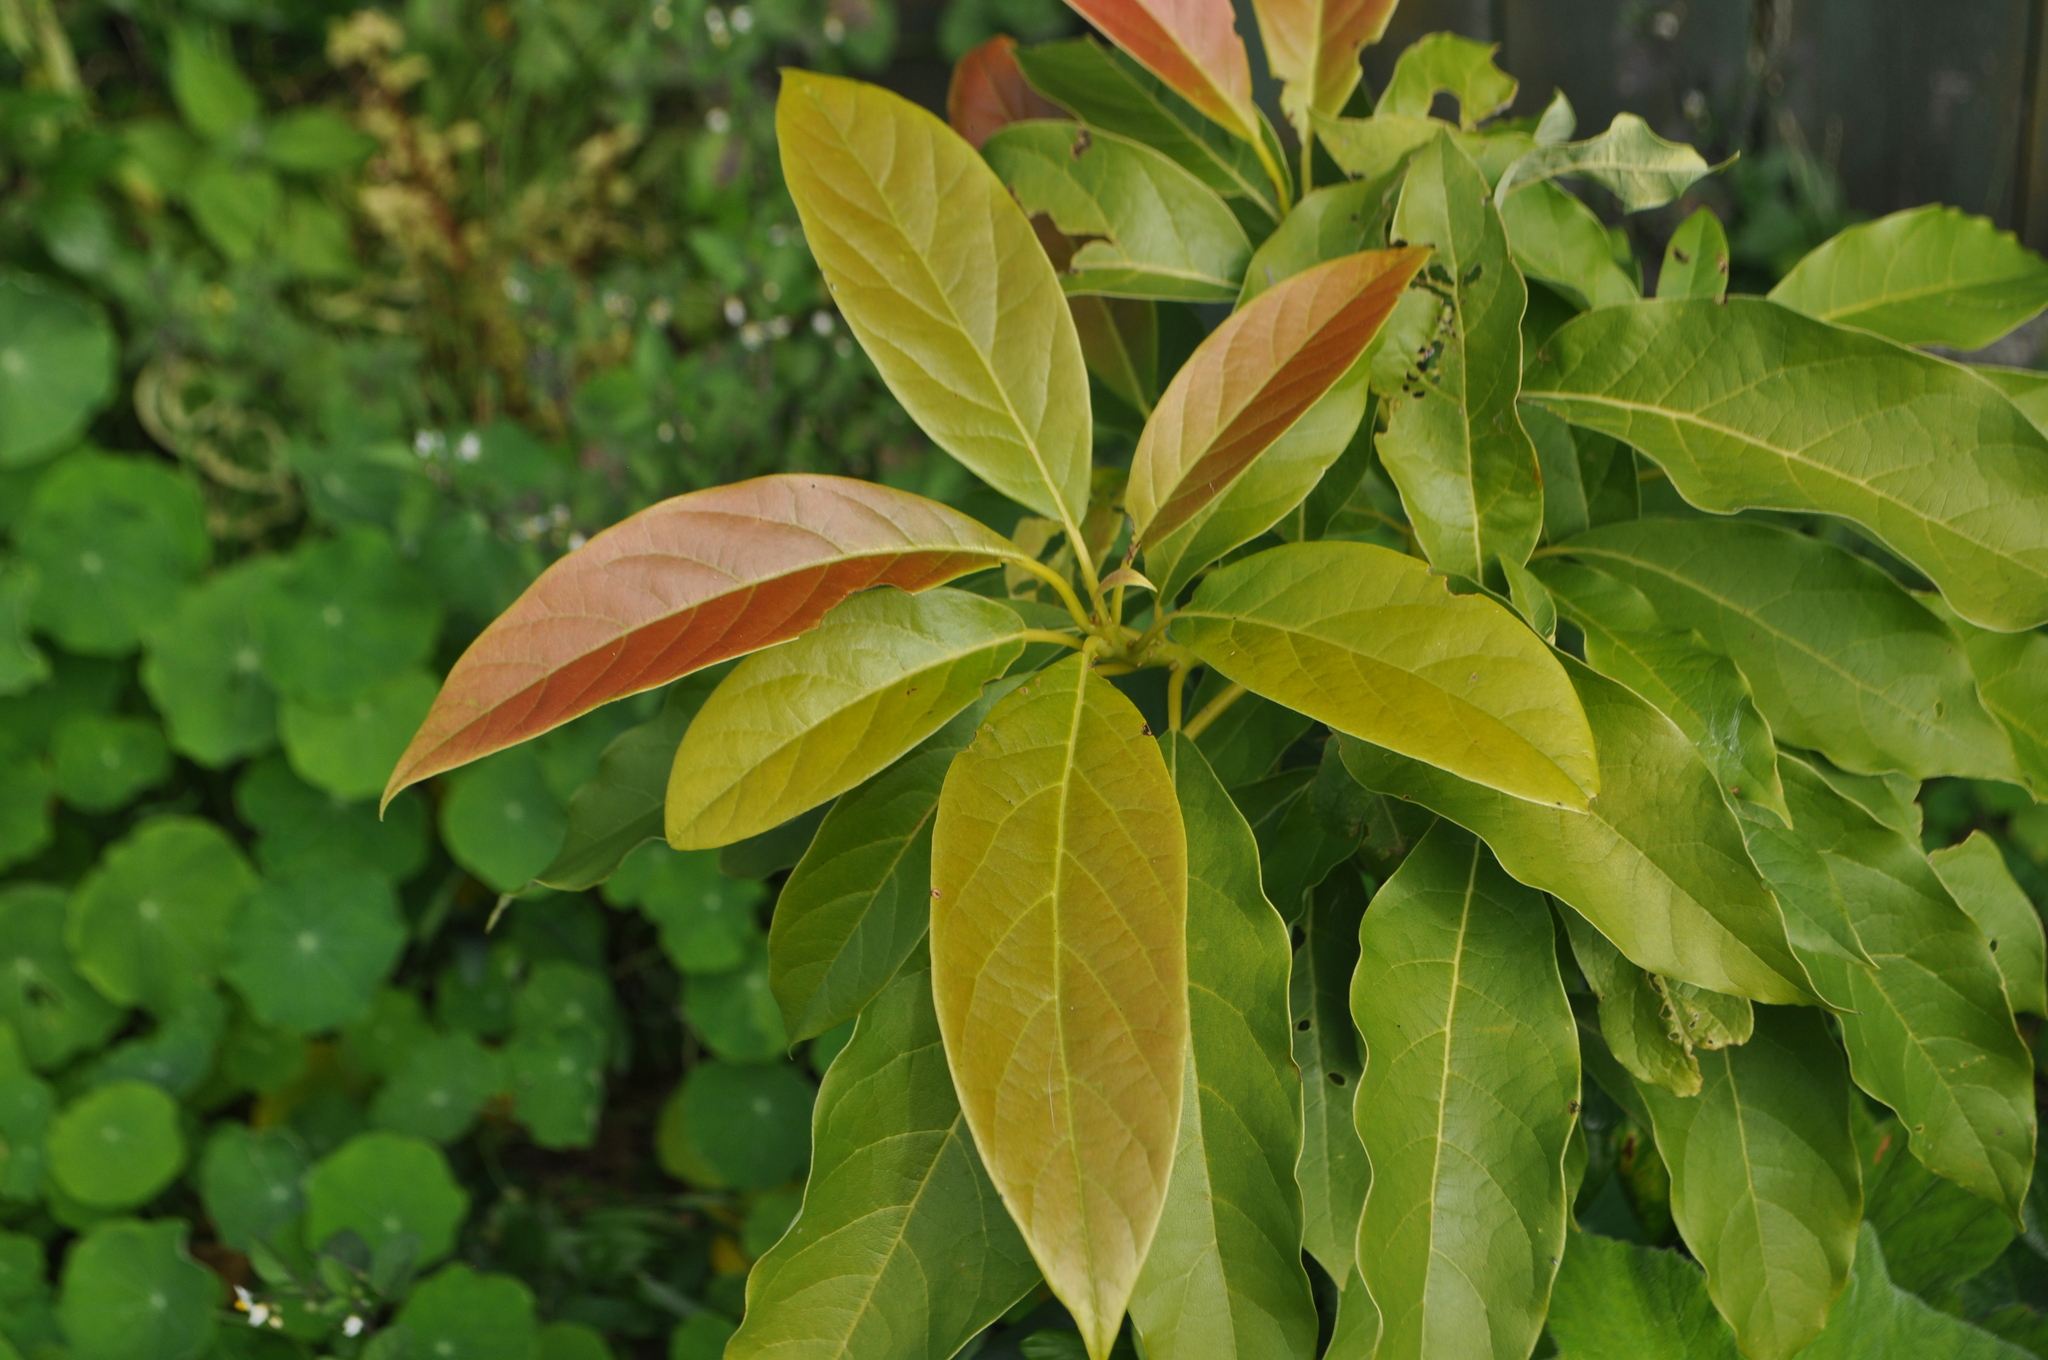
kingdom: Plantae
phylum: Tracheophyta
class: Magnoliopsida
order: Laurales
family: Lauraceae
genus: Persea
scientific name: Persea americana
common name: Avocado
